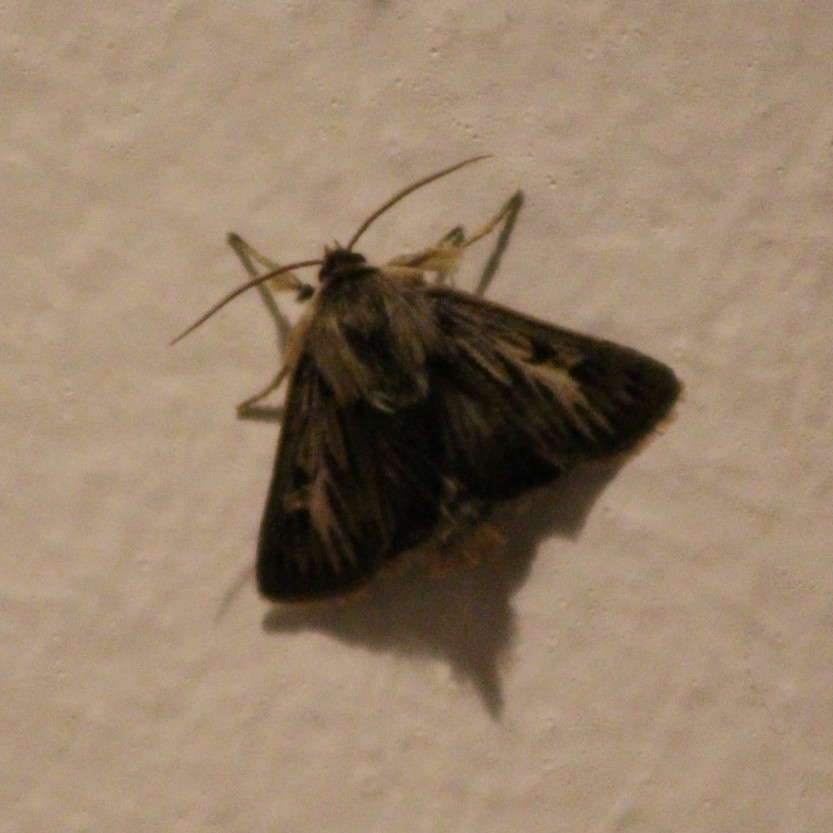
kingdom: Animalia
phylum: Arthropoda
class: Insecta
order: Lepidoptera
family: Noctuidae
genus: Cerapteryx
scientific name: Cerapteryx graminis
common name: Antler moth
